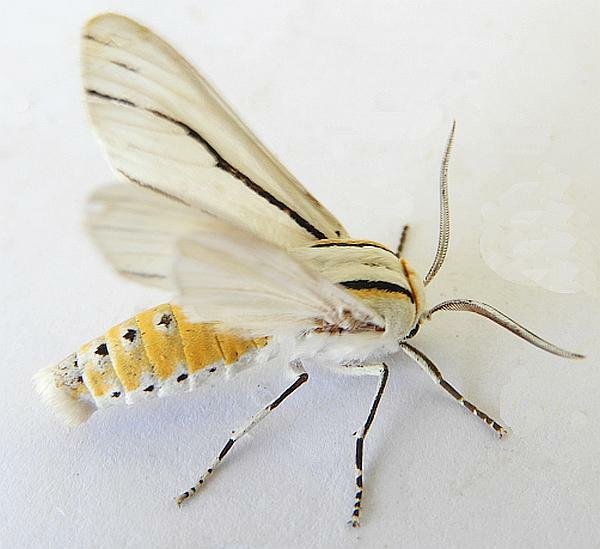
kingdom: Animalia
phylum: Arthropoda
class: Insecta
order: Lepidoptera
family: Erebidae
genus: Ectypia
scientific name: Ectypia clio
